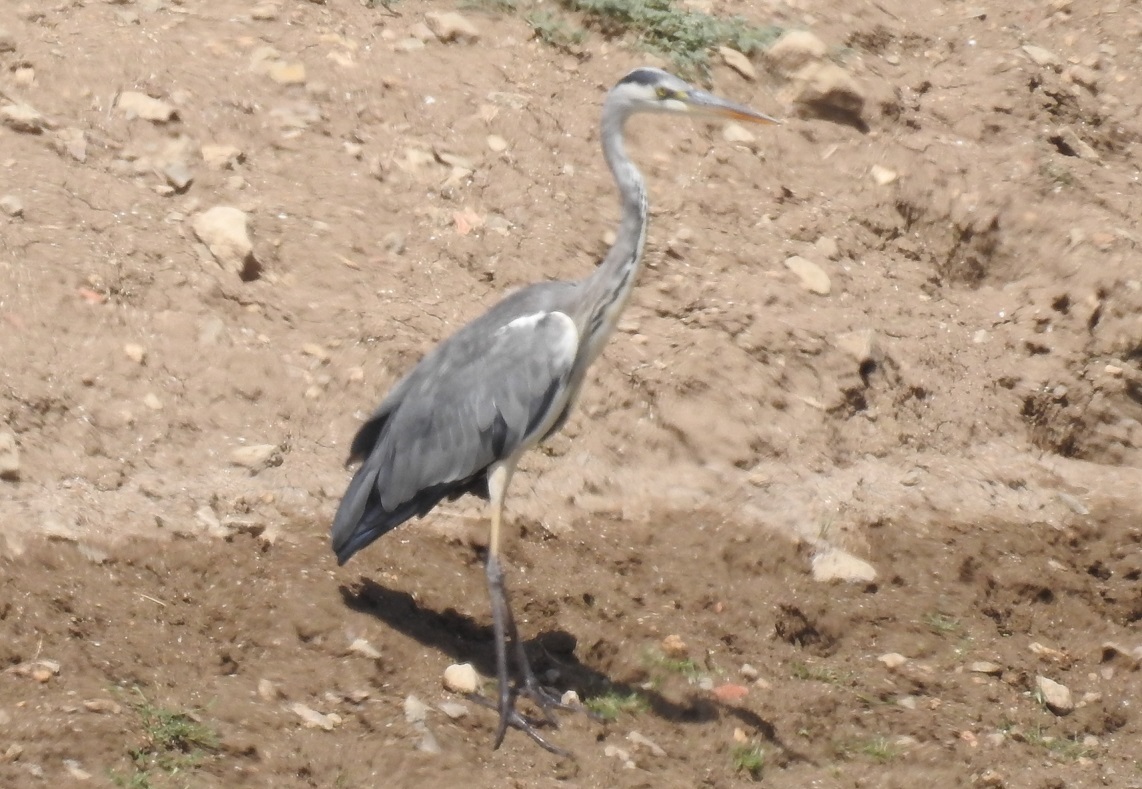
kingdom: Animalia
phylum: Chordata
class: Aves
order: Pelecaniformes
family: Ardeidae
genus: Ardea
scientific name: Ardea cinerea
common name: Grey heron
